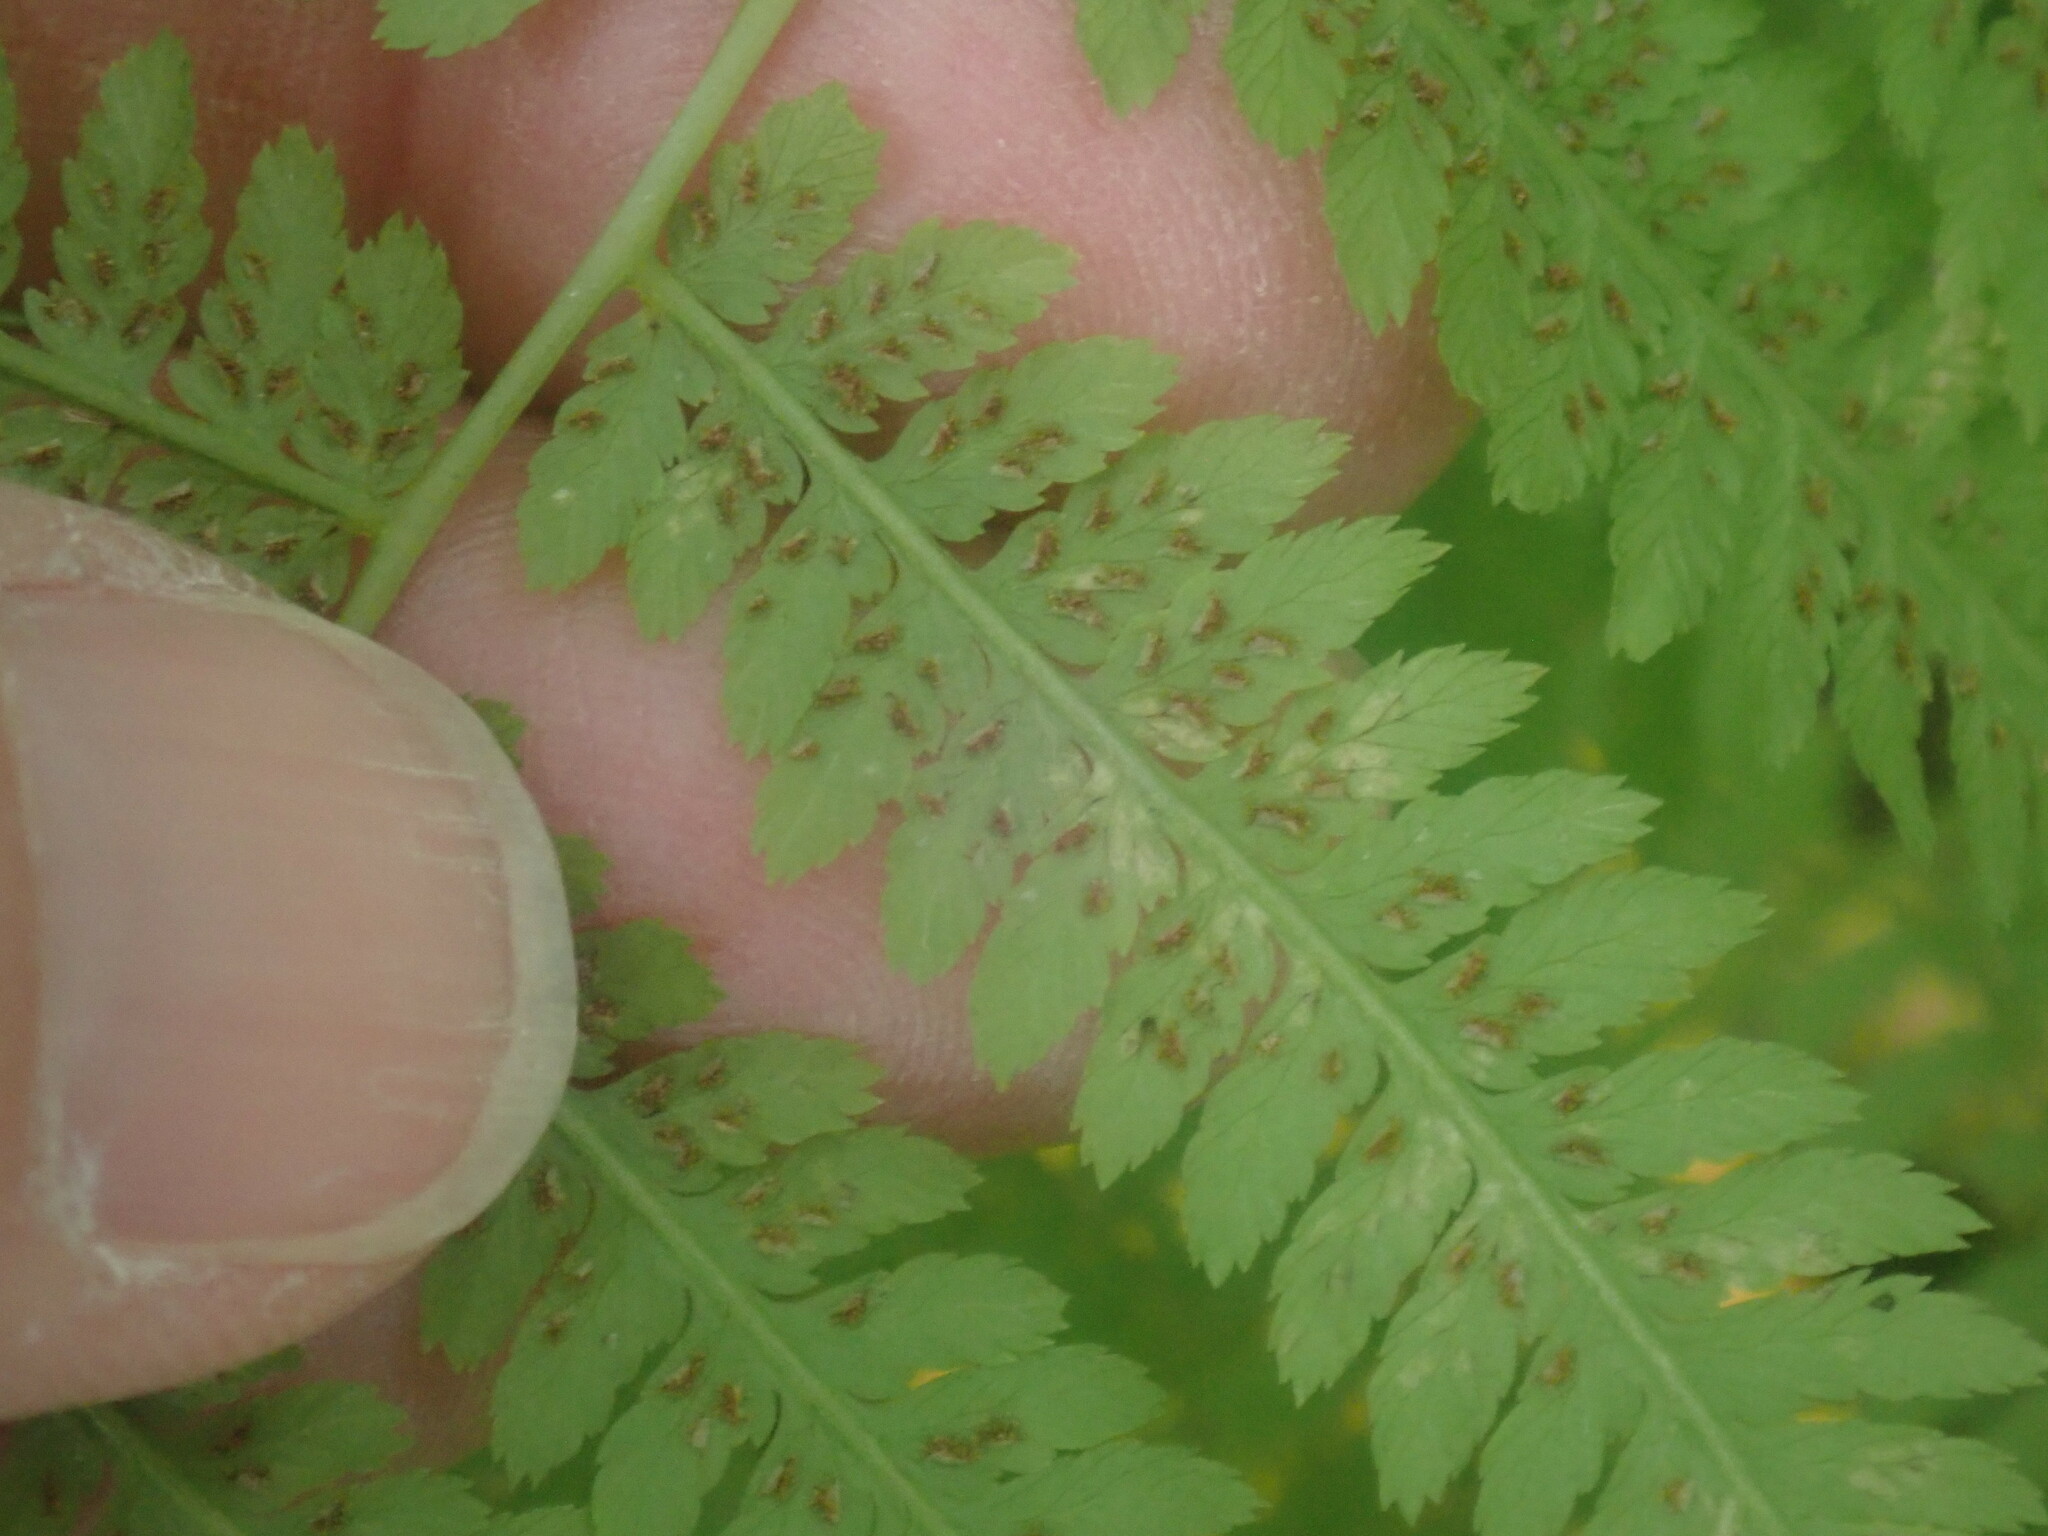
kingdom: Plantae
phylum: Tracheophyta
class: Polypodiopsida
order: Polypodiales
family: Athyriaceae
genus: Athyrium
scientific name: Athyrium angustum
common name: Northern lady fern
